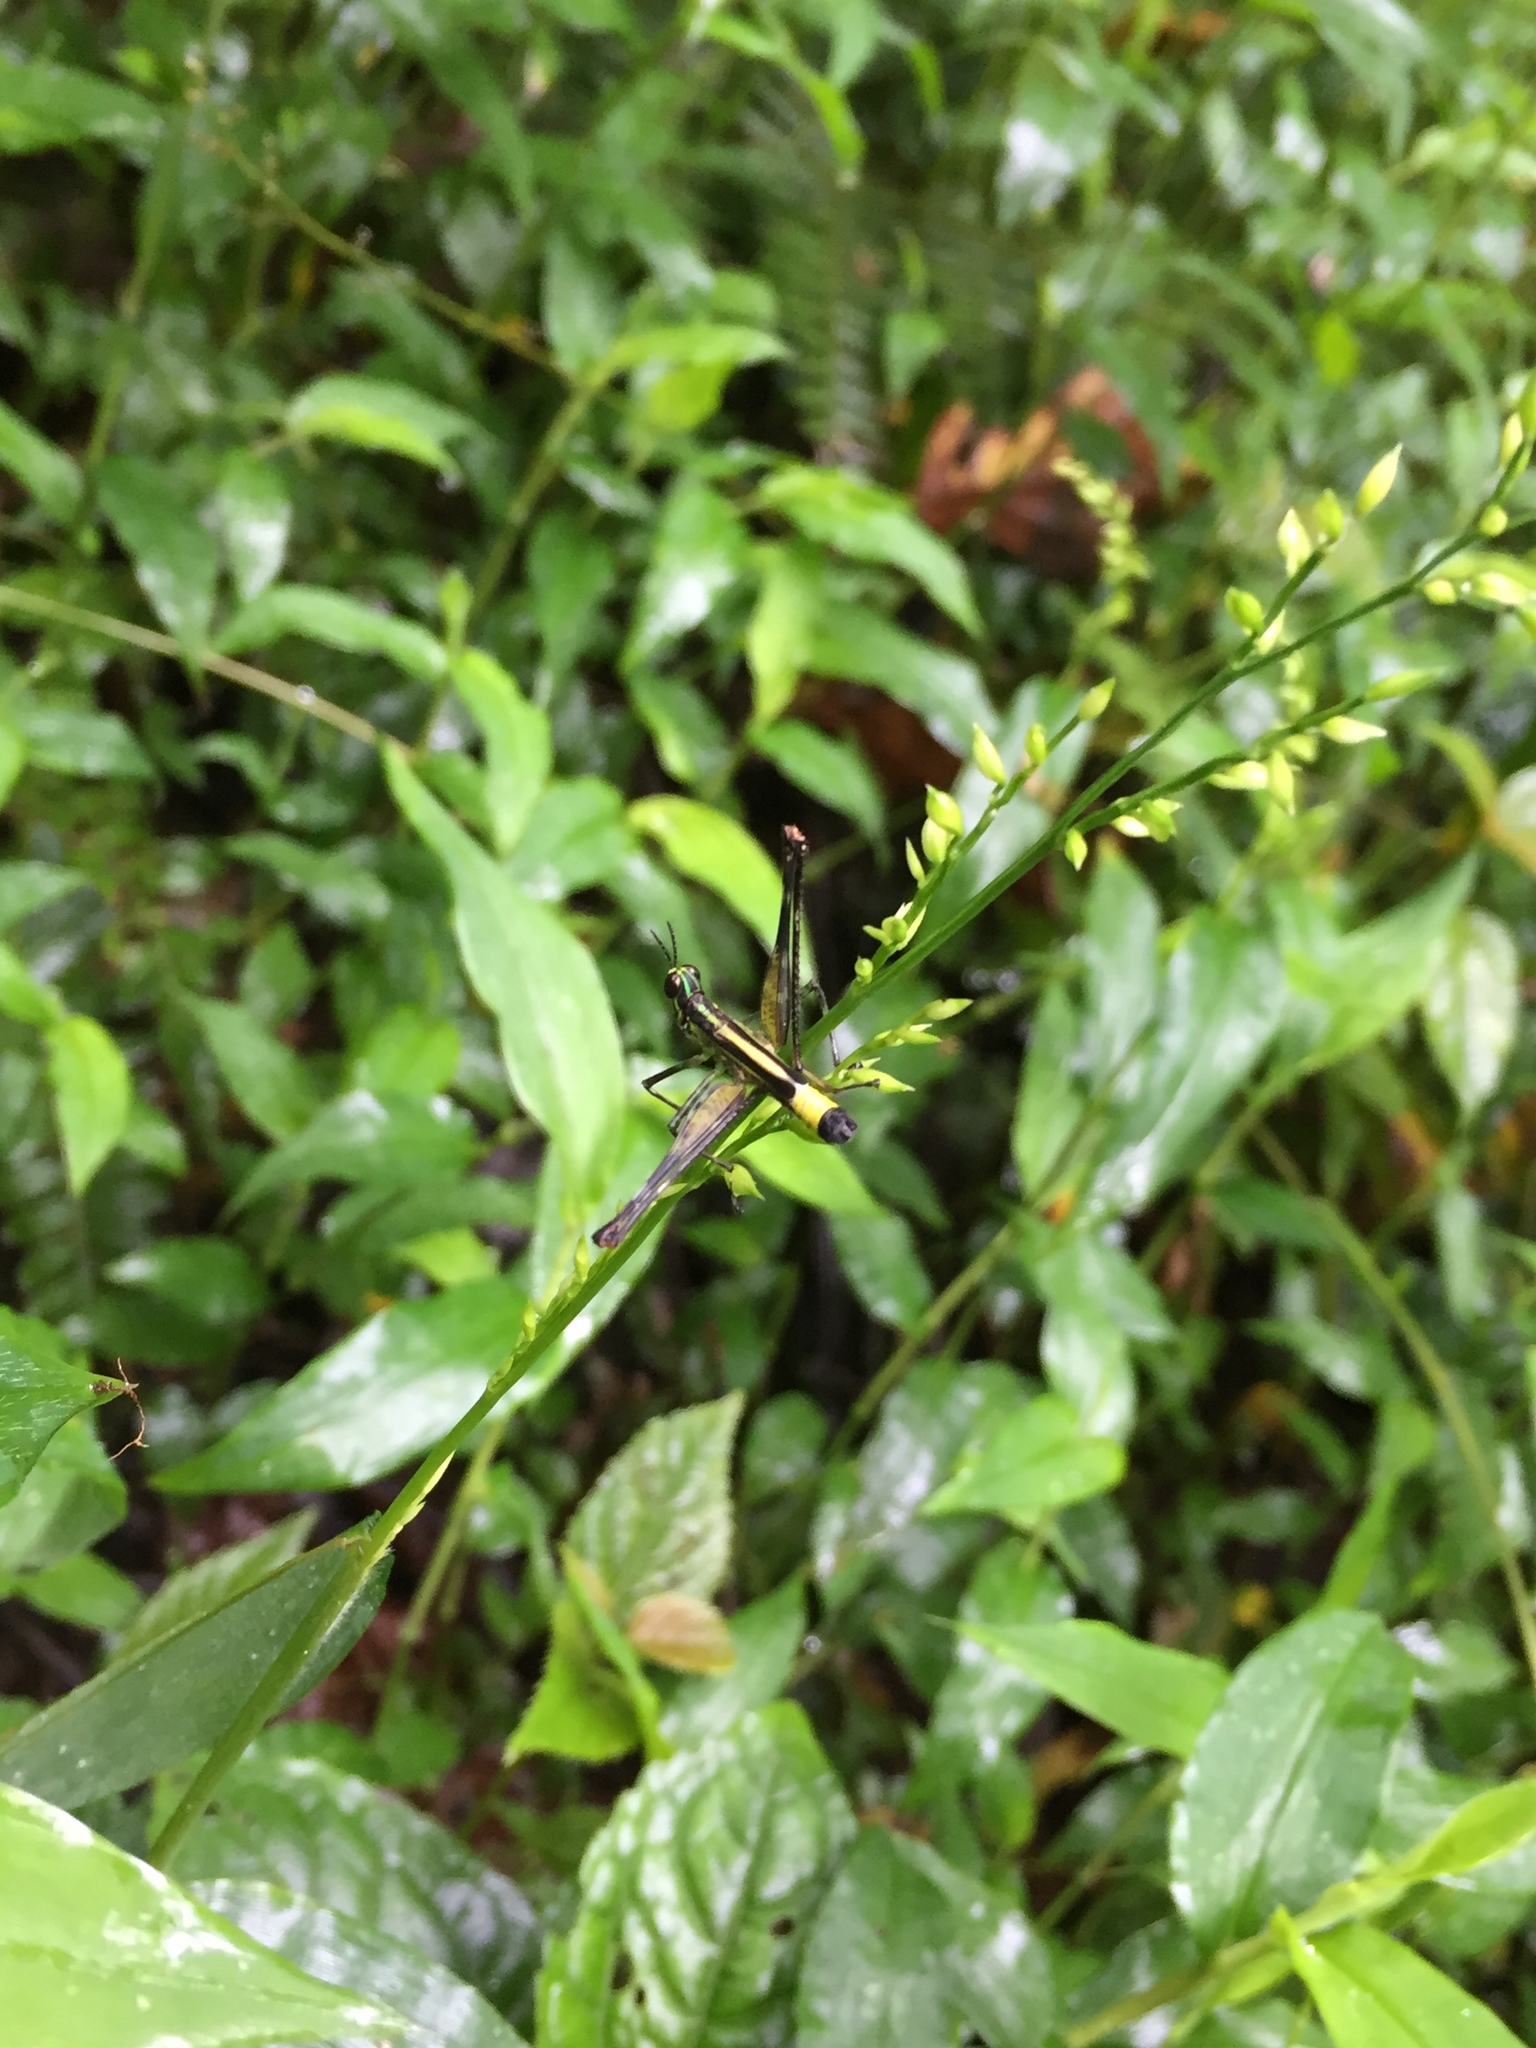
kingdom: Animalia
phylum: Arthropoda
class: Insecta
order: Orthoptera
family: Eumastacidae
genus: Paramastax
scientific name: Paramastax mariaetheresiae
